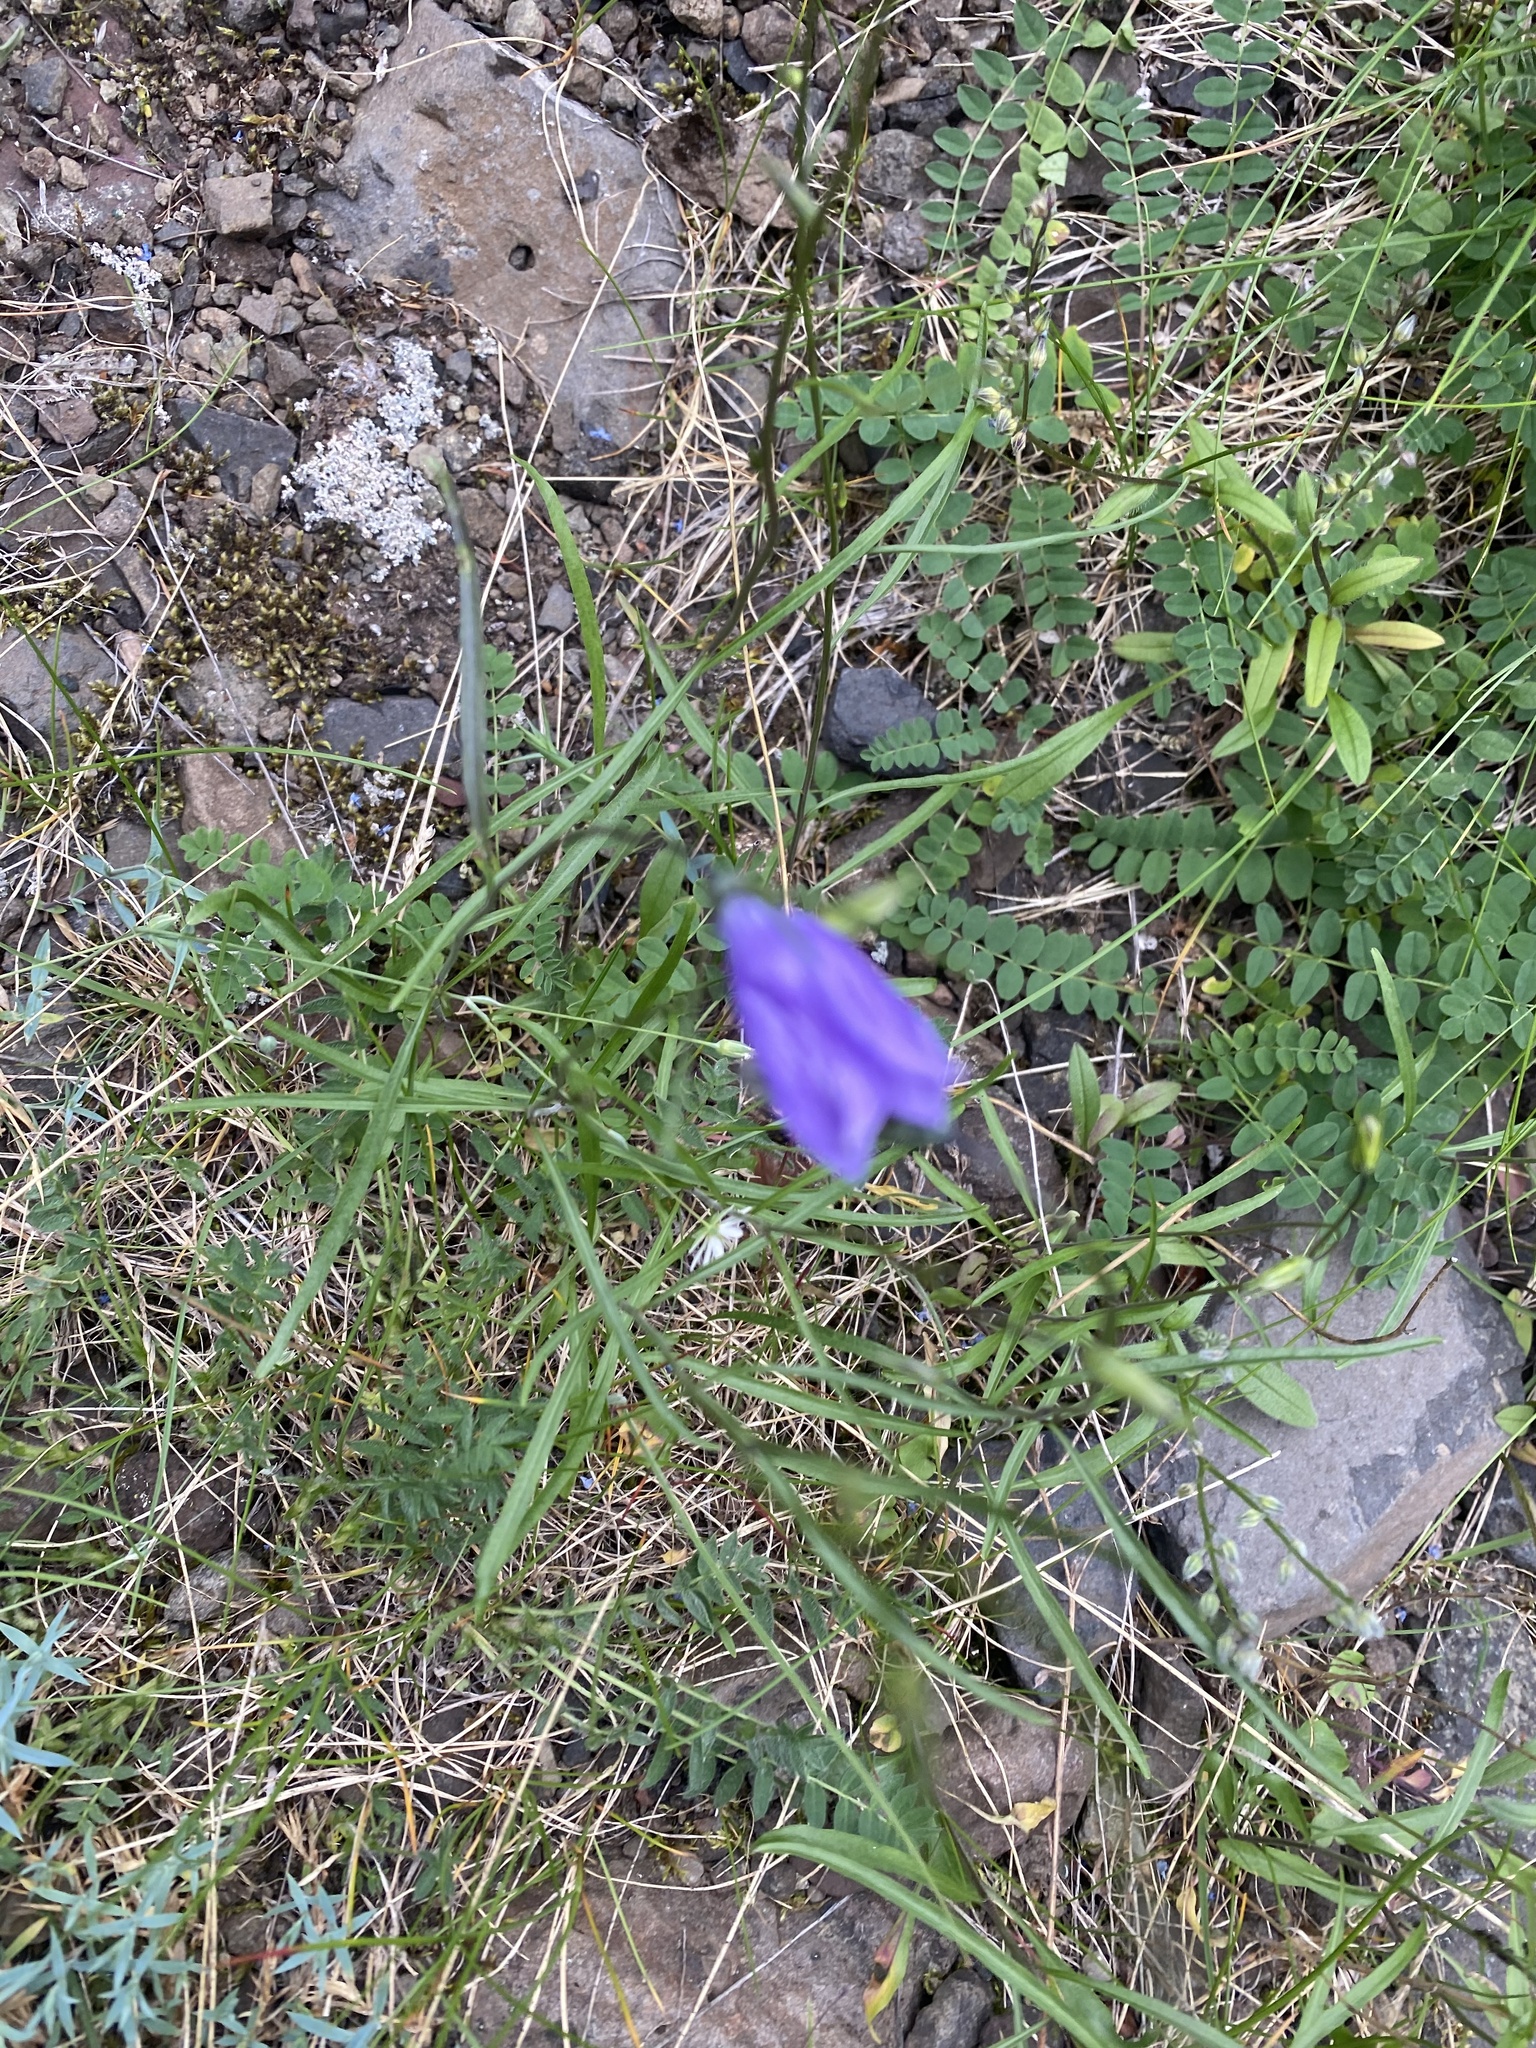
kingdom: Plantae
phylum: Tracheophyta
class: Magnoliopsida
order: Asterales
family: Campanulaceae
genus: Campanula
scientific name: Campanula rotundifolia
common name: Harebell
